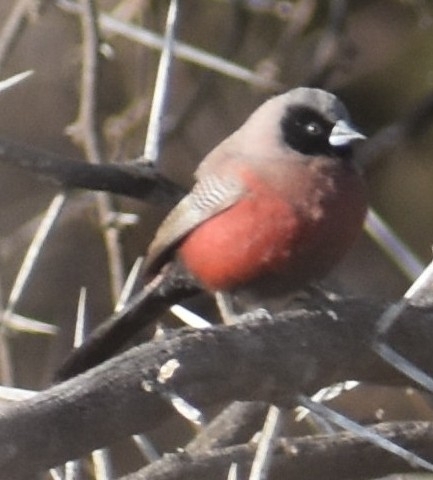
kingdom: Animalia
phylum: Chordata
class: Aves
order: Passeriformes
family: Estrildidae
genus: Estrilda
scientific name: Estrilda erythronotos
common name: Black-faced waxbill
